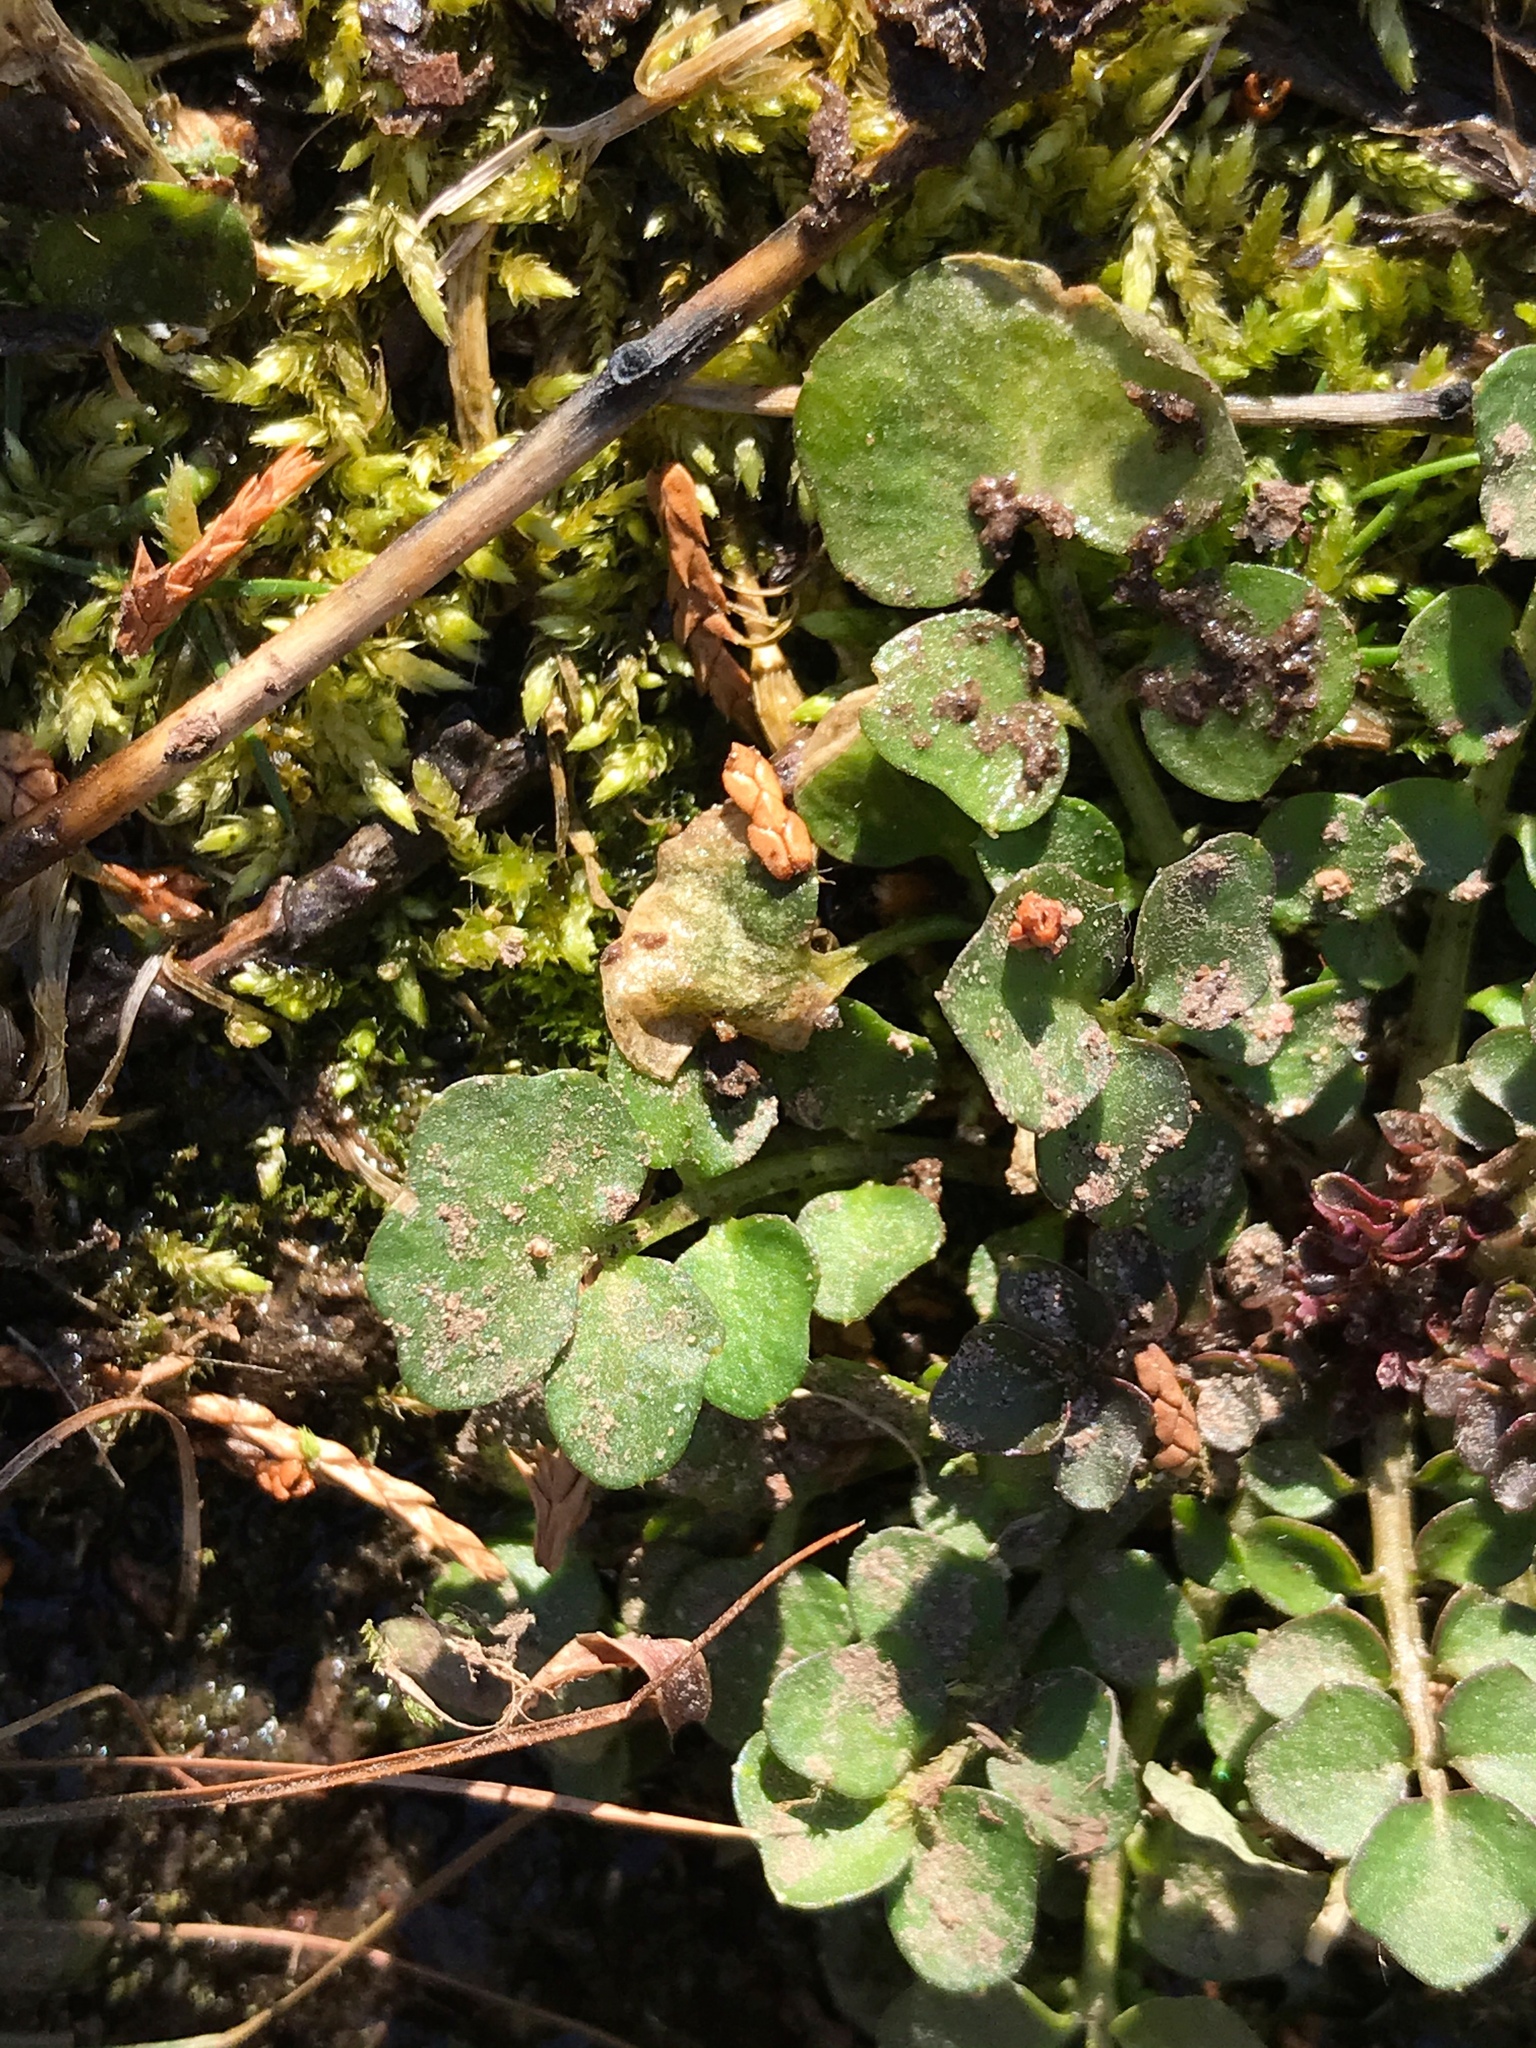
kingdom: Plantae
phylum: Tracheophyta
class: Magnoliopsida
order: Brassicales
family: Brassicaceae
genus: Cardamine
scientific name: Cardamine hirsuta
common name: Hairy bittercress
